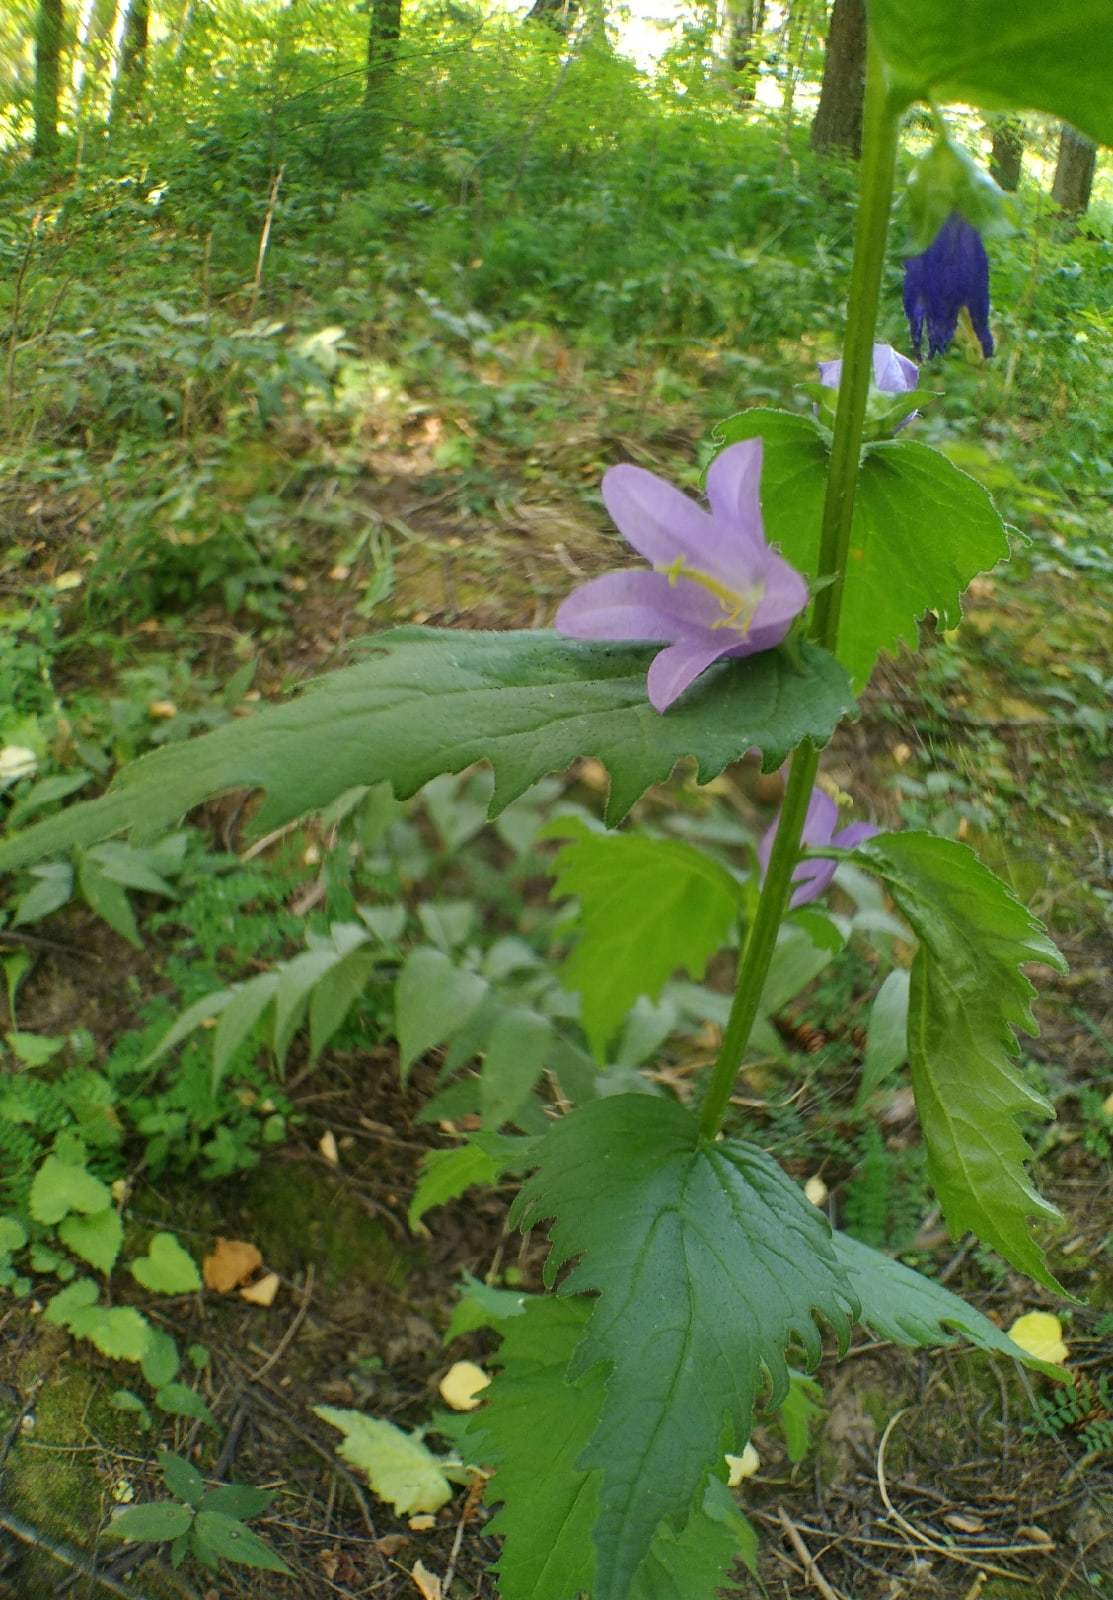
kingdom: Plantae
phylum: Tracheophyta
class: Magnoliopsida
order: Asterales
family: Campanulaceae
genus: Campanula
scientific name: Campanula trachelium
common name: Nettle-leaved bellflower
